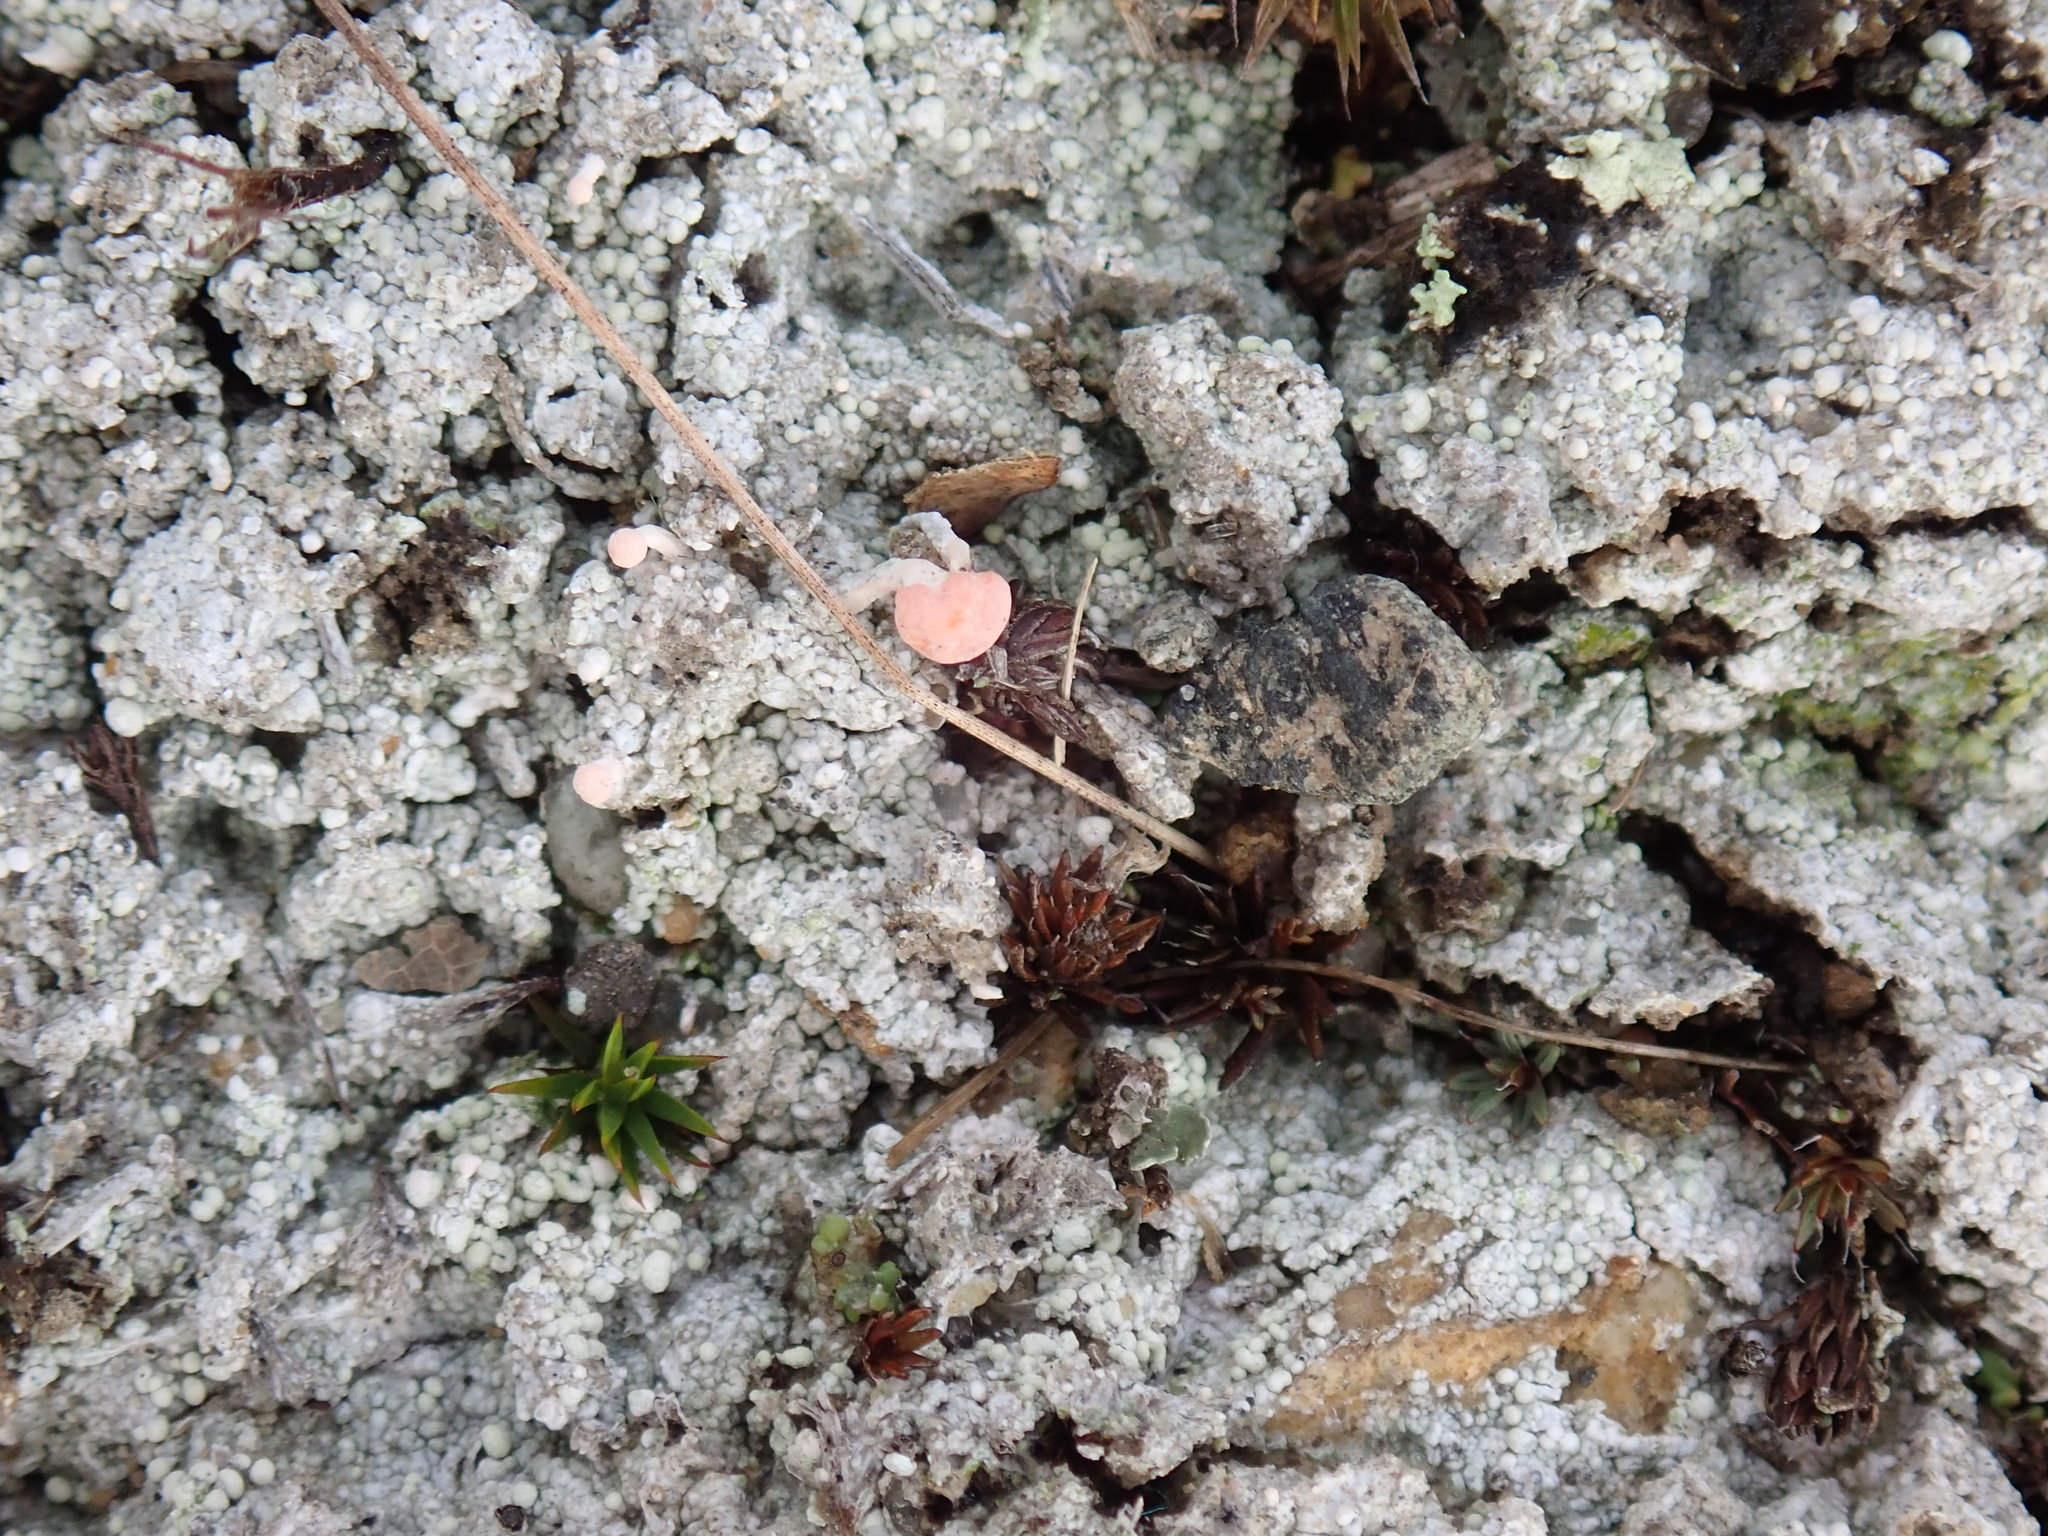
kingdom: Fungi
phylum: Ascomycota
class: Lecanoromycetes
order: Pertusariales
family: Icmadophilaceae
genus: Dibaeis
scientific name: Dibaeis baeomyces
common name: Pink earth lichen
